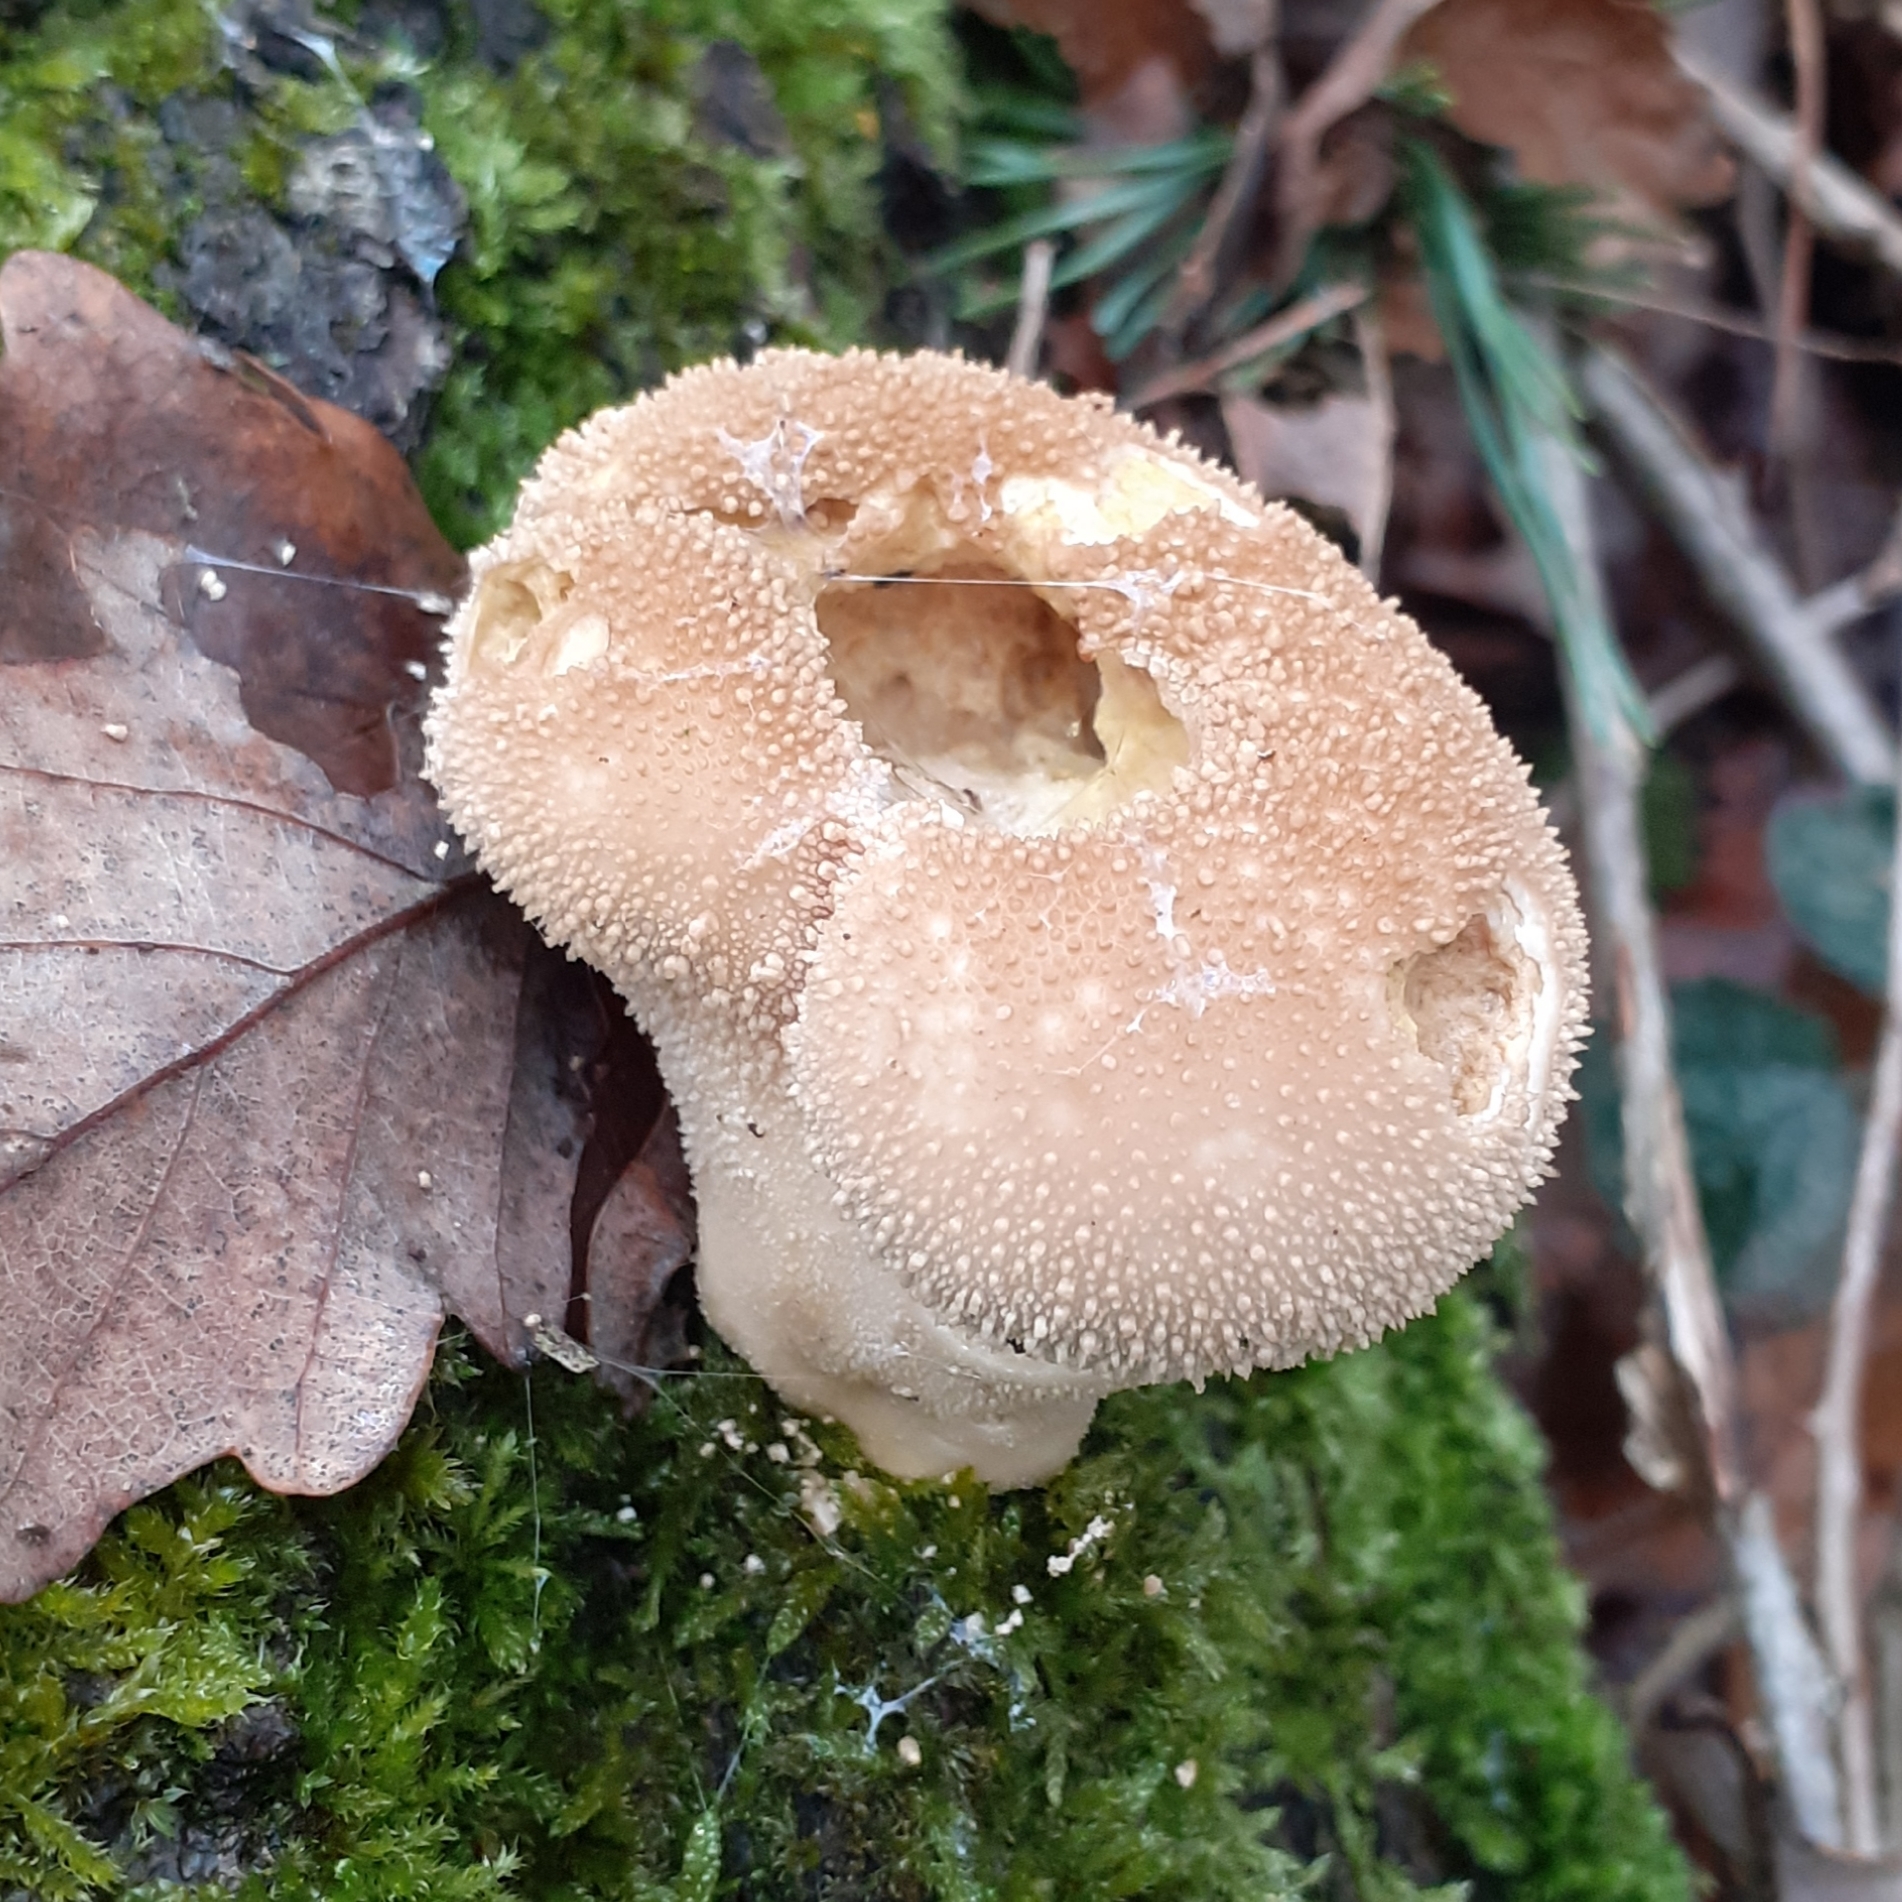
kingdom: Fungi
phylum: Basidiomycota
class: Agaricomycetes
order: Agaricales
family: Lycoperdaceae
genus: Lycoperdon
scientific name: Lycoperdon perlatum
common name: Common puffball
